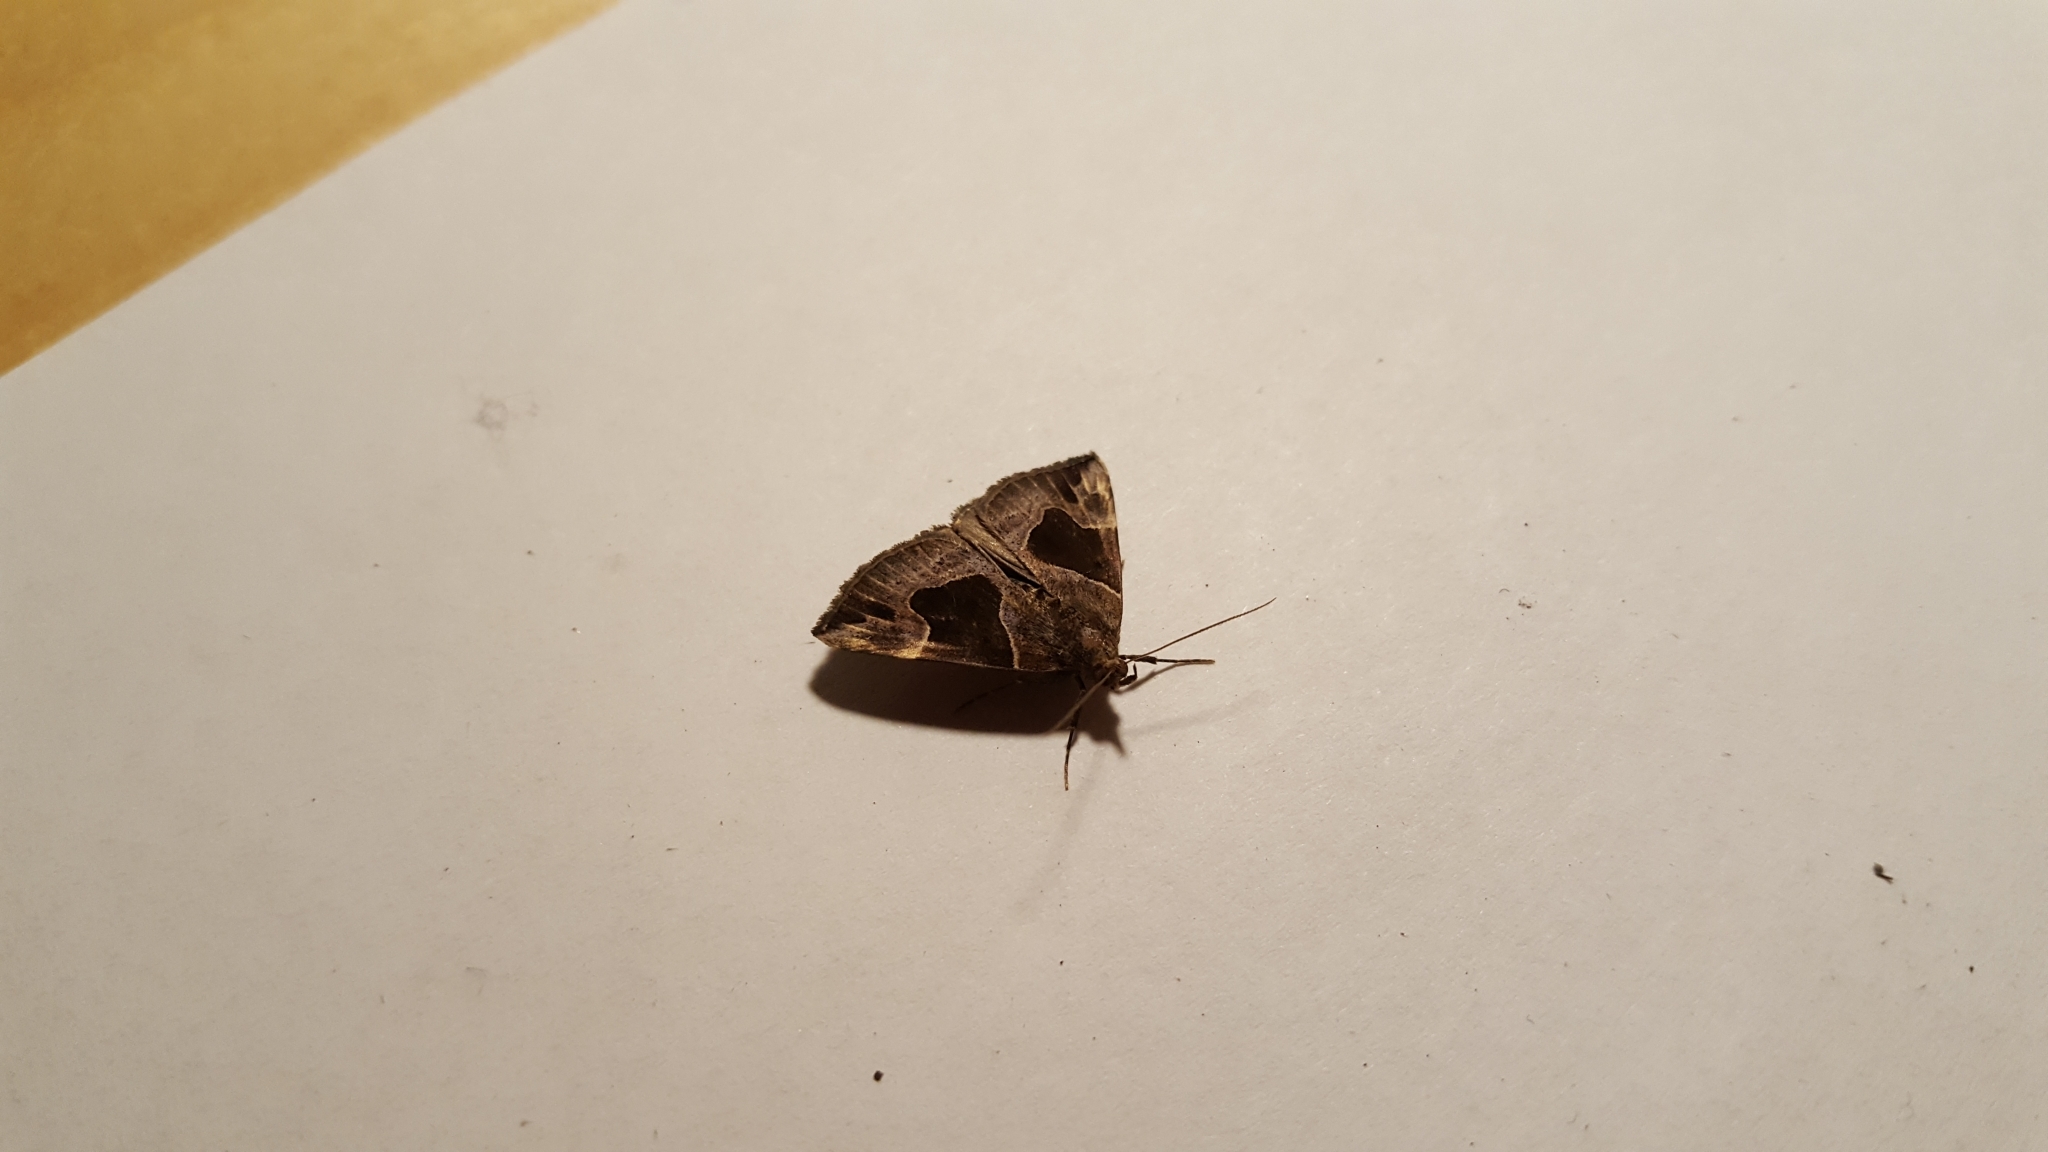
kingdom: Animalia
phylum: Arthropoda
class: Insecta
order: Lepidoptera
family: Erebidae
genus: Hypena
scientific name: Hypena manalis
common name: Flowing-line bomolocha moth
